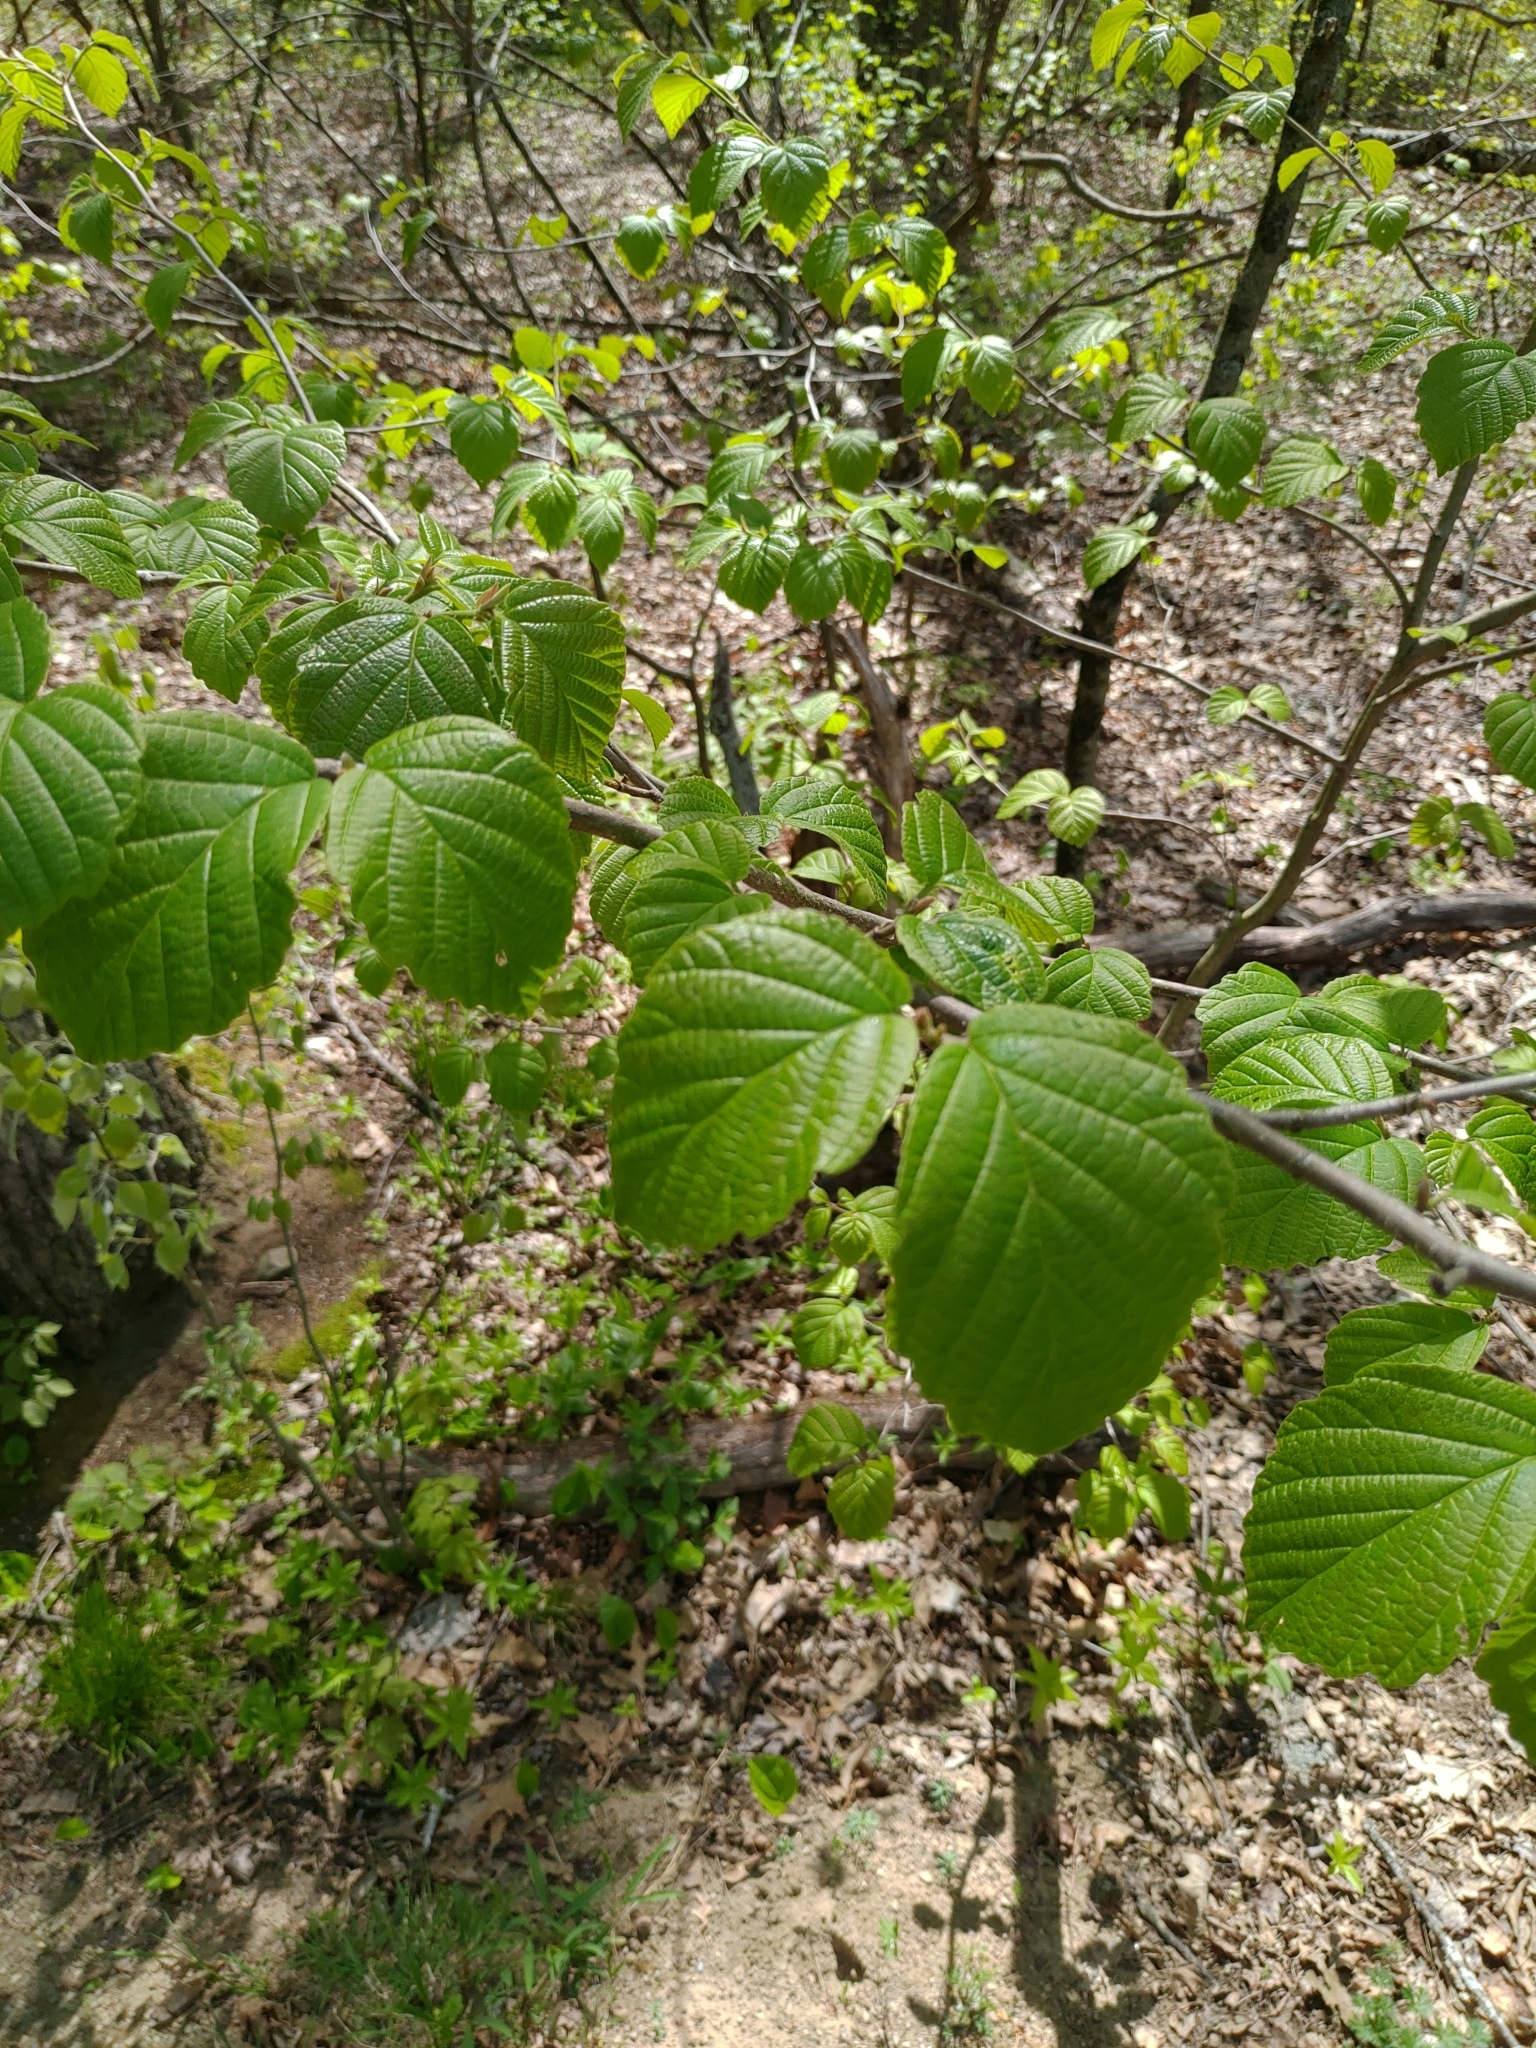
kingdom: Plantae
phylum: Tracheophyta
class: Magnoliopsida
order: Saxifragales
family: Hamamelidaceae
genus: Hamamelis
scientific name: Hamamelis virginiana
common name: Witch-hazel
